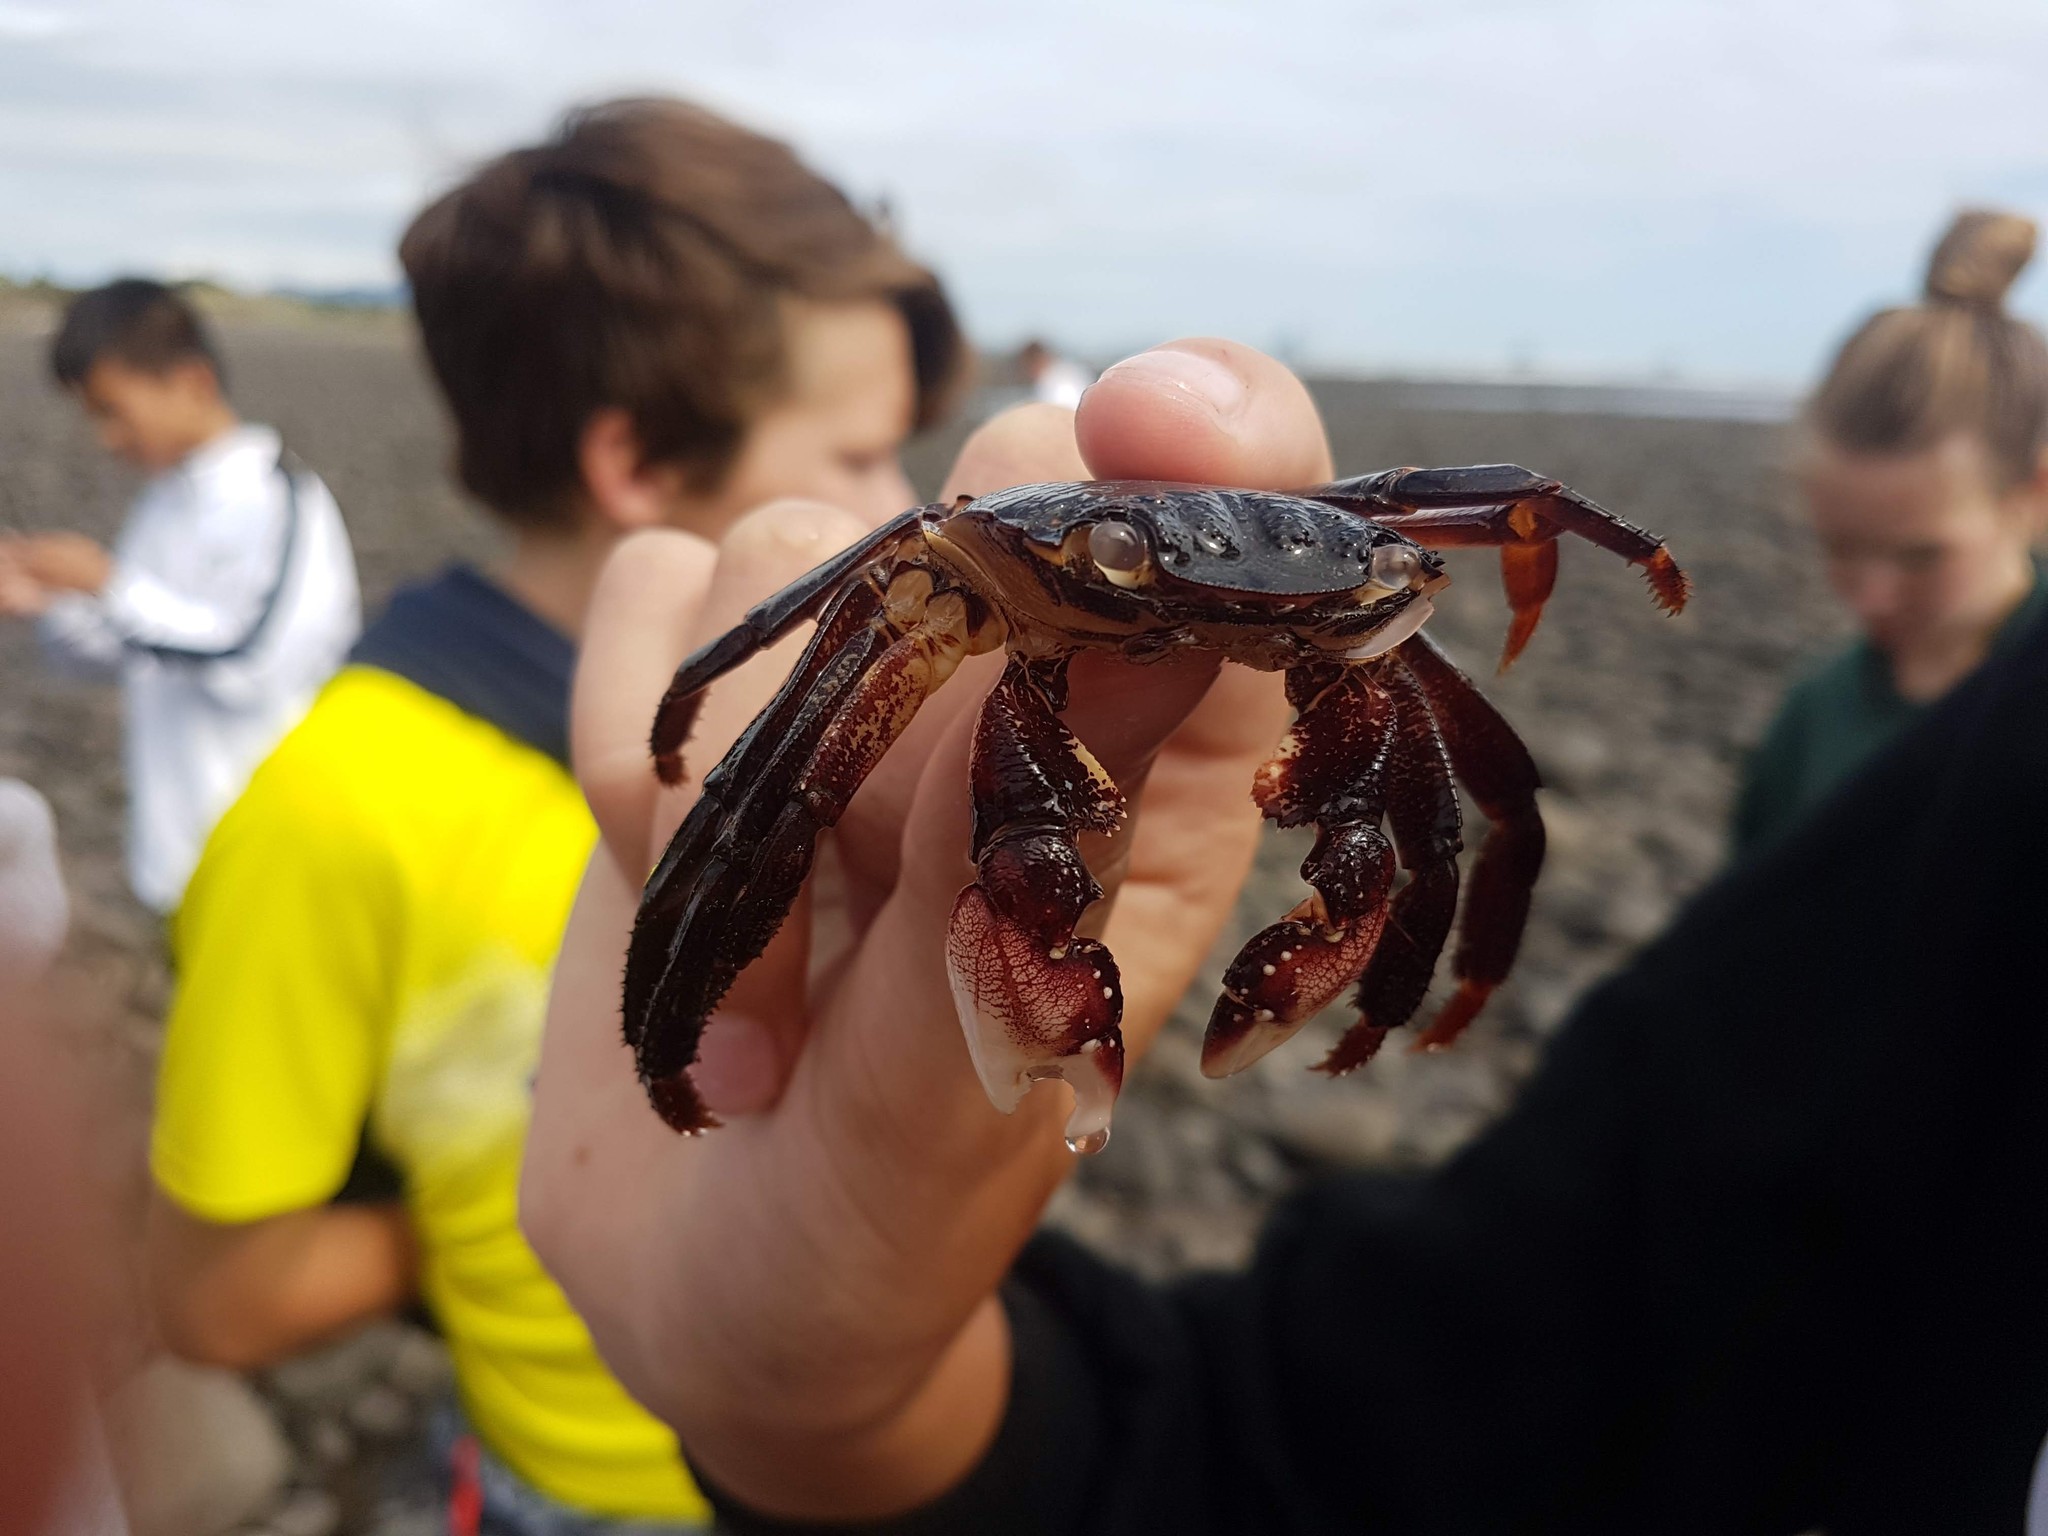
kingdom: Animalia
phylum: Arthropoda
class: Malacostraca
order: Decapoda
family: Grapsidae
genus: Leptograpsus
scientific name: Leptograpsus variegatus
